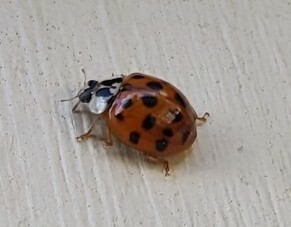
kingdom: Animalia
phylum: Arthropoda
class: Insecta
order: Coleoptera
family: Coccinellidae
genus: Harmonia
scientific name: Harmonia axyridis
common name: Harlequin ladybird
